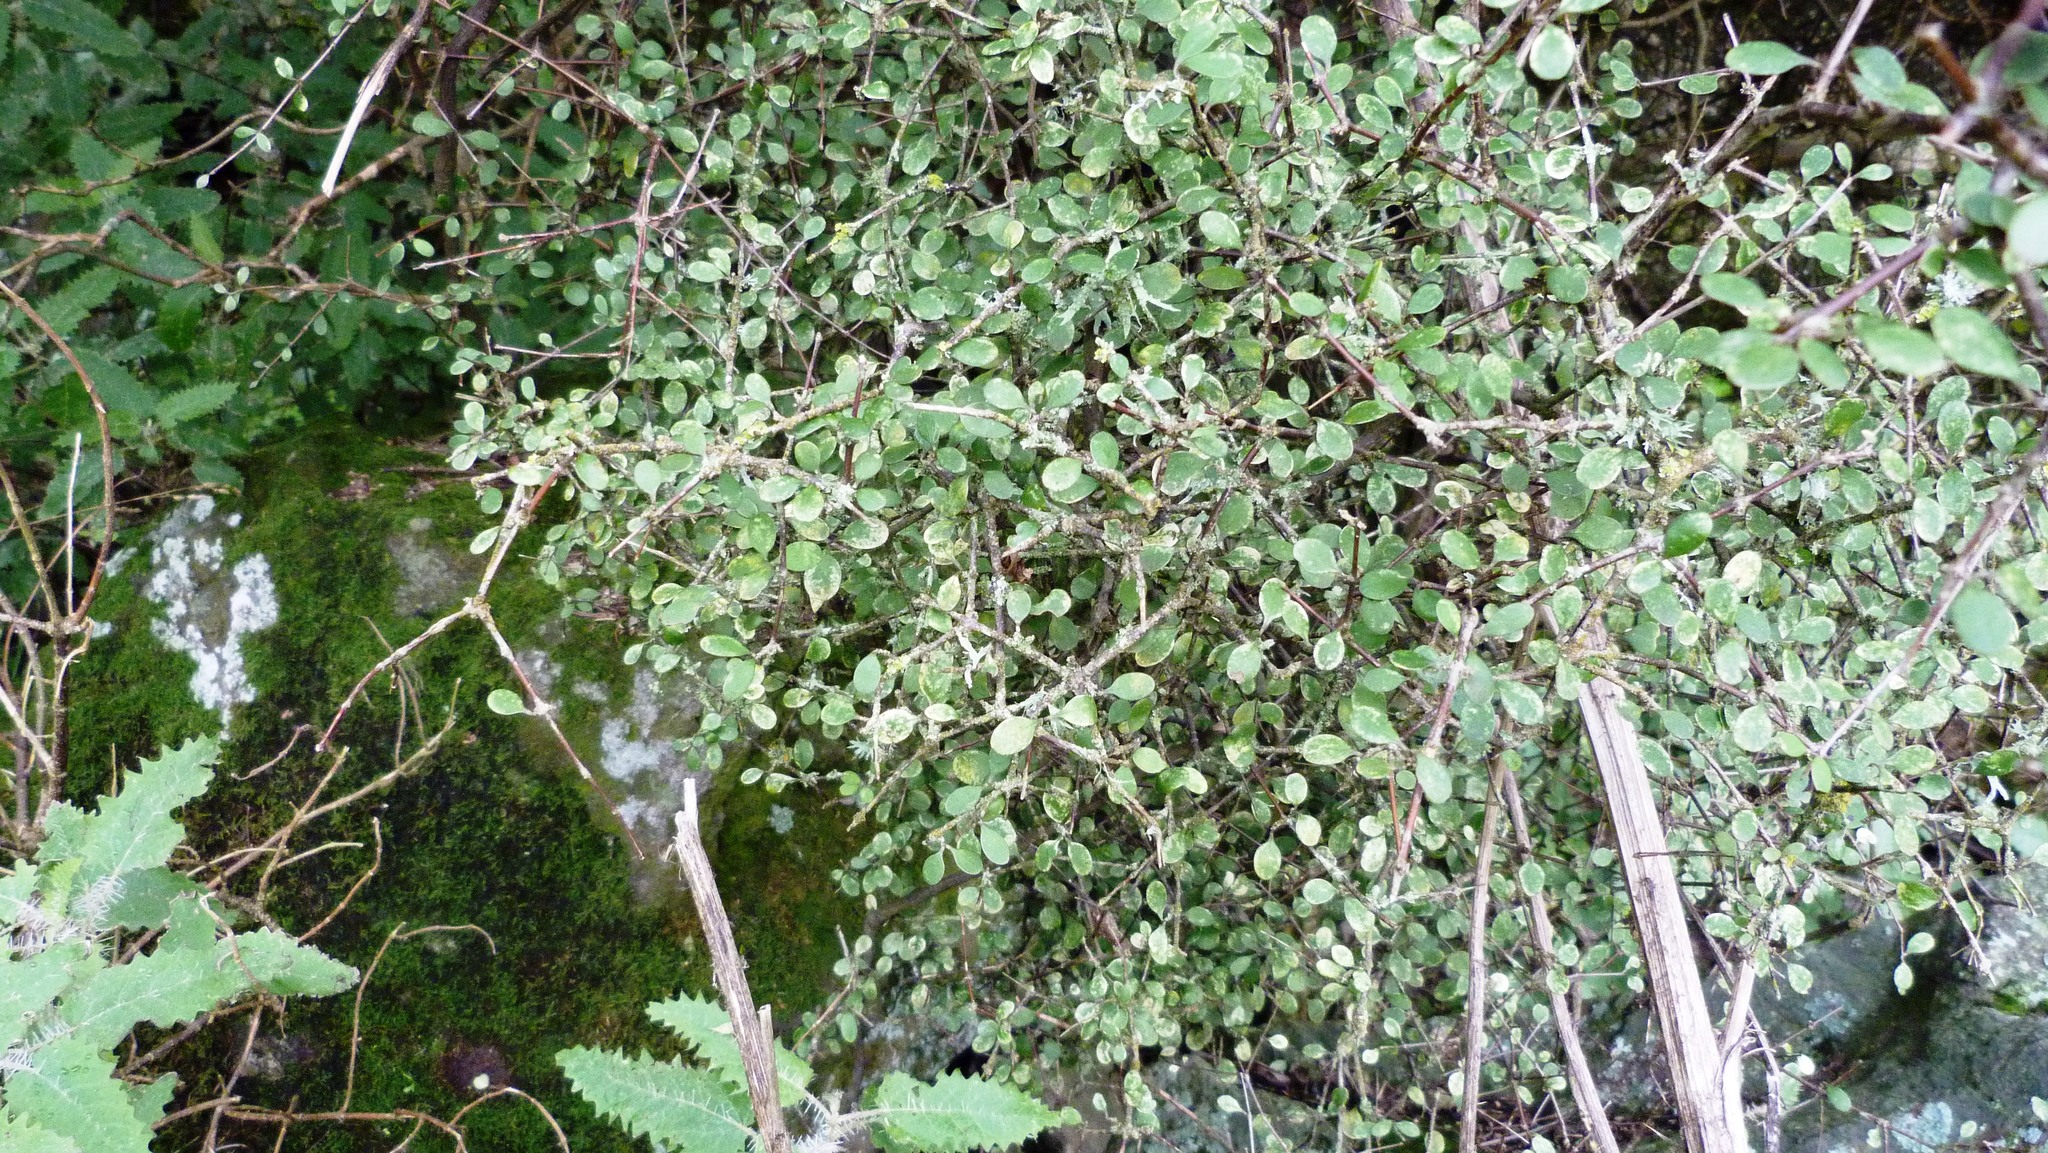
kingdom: Plantae
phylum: Tracheophyta
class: Magnoliopsida
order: Gentianales
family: Rubiaceae
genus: Coprosma
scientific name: Coprosma crassifolia
